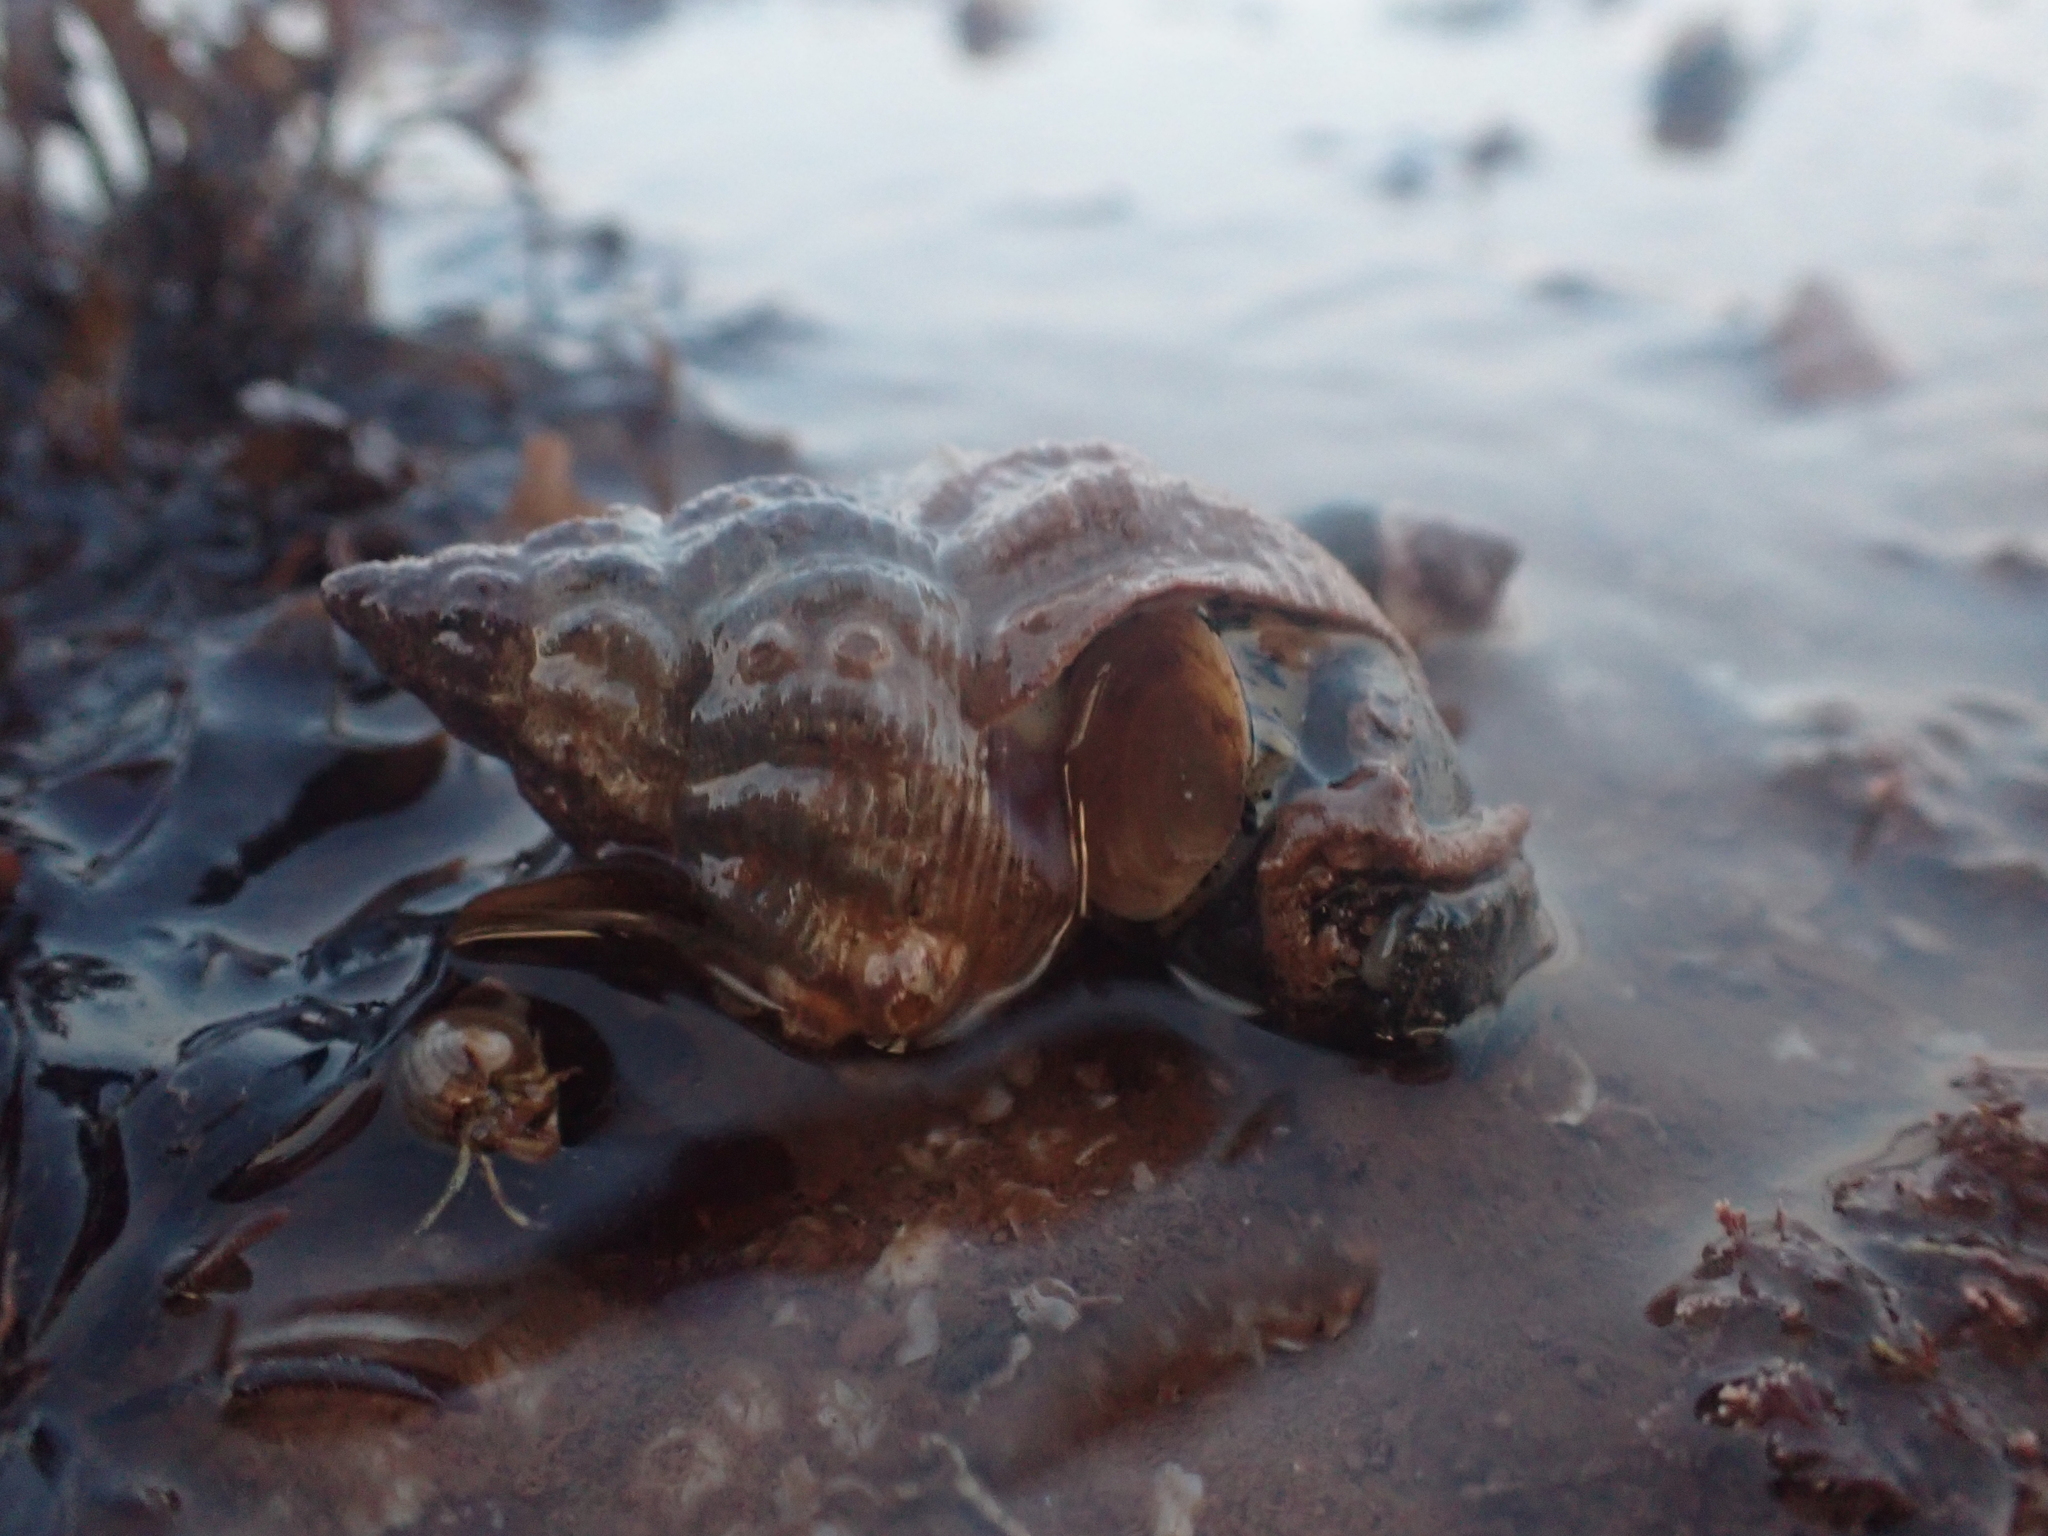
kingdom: Animalia
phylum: Mollusca
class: Gastropoda
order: Neogastropoda
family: Buccinidae
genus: Buccinum
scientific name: Buccinum undatum
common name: Common whelk
